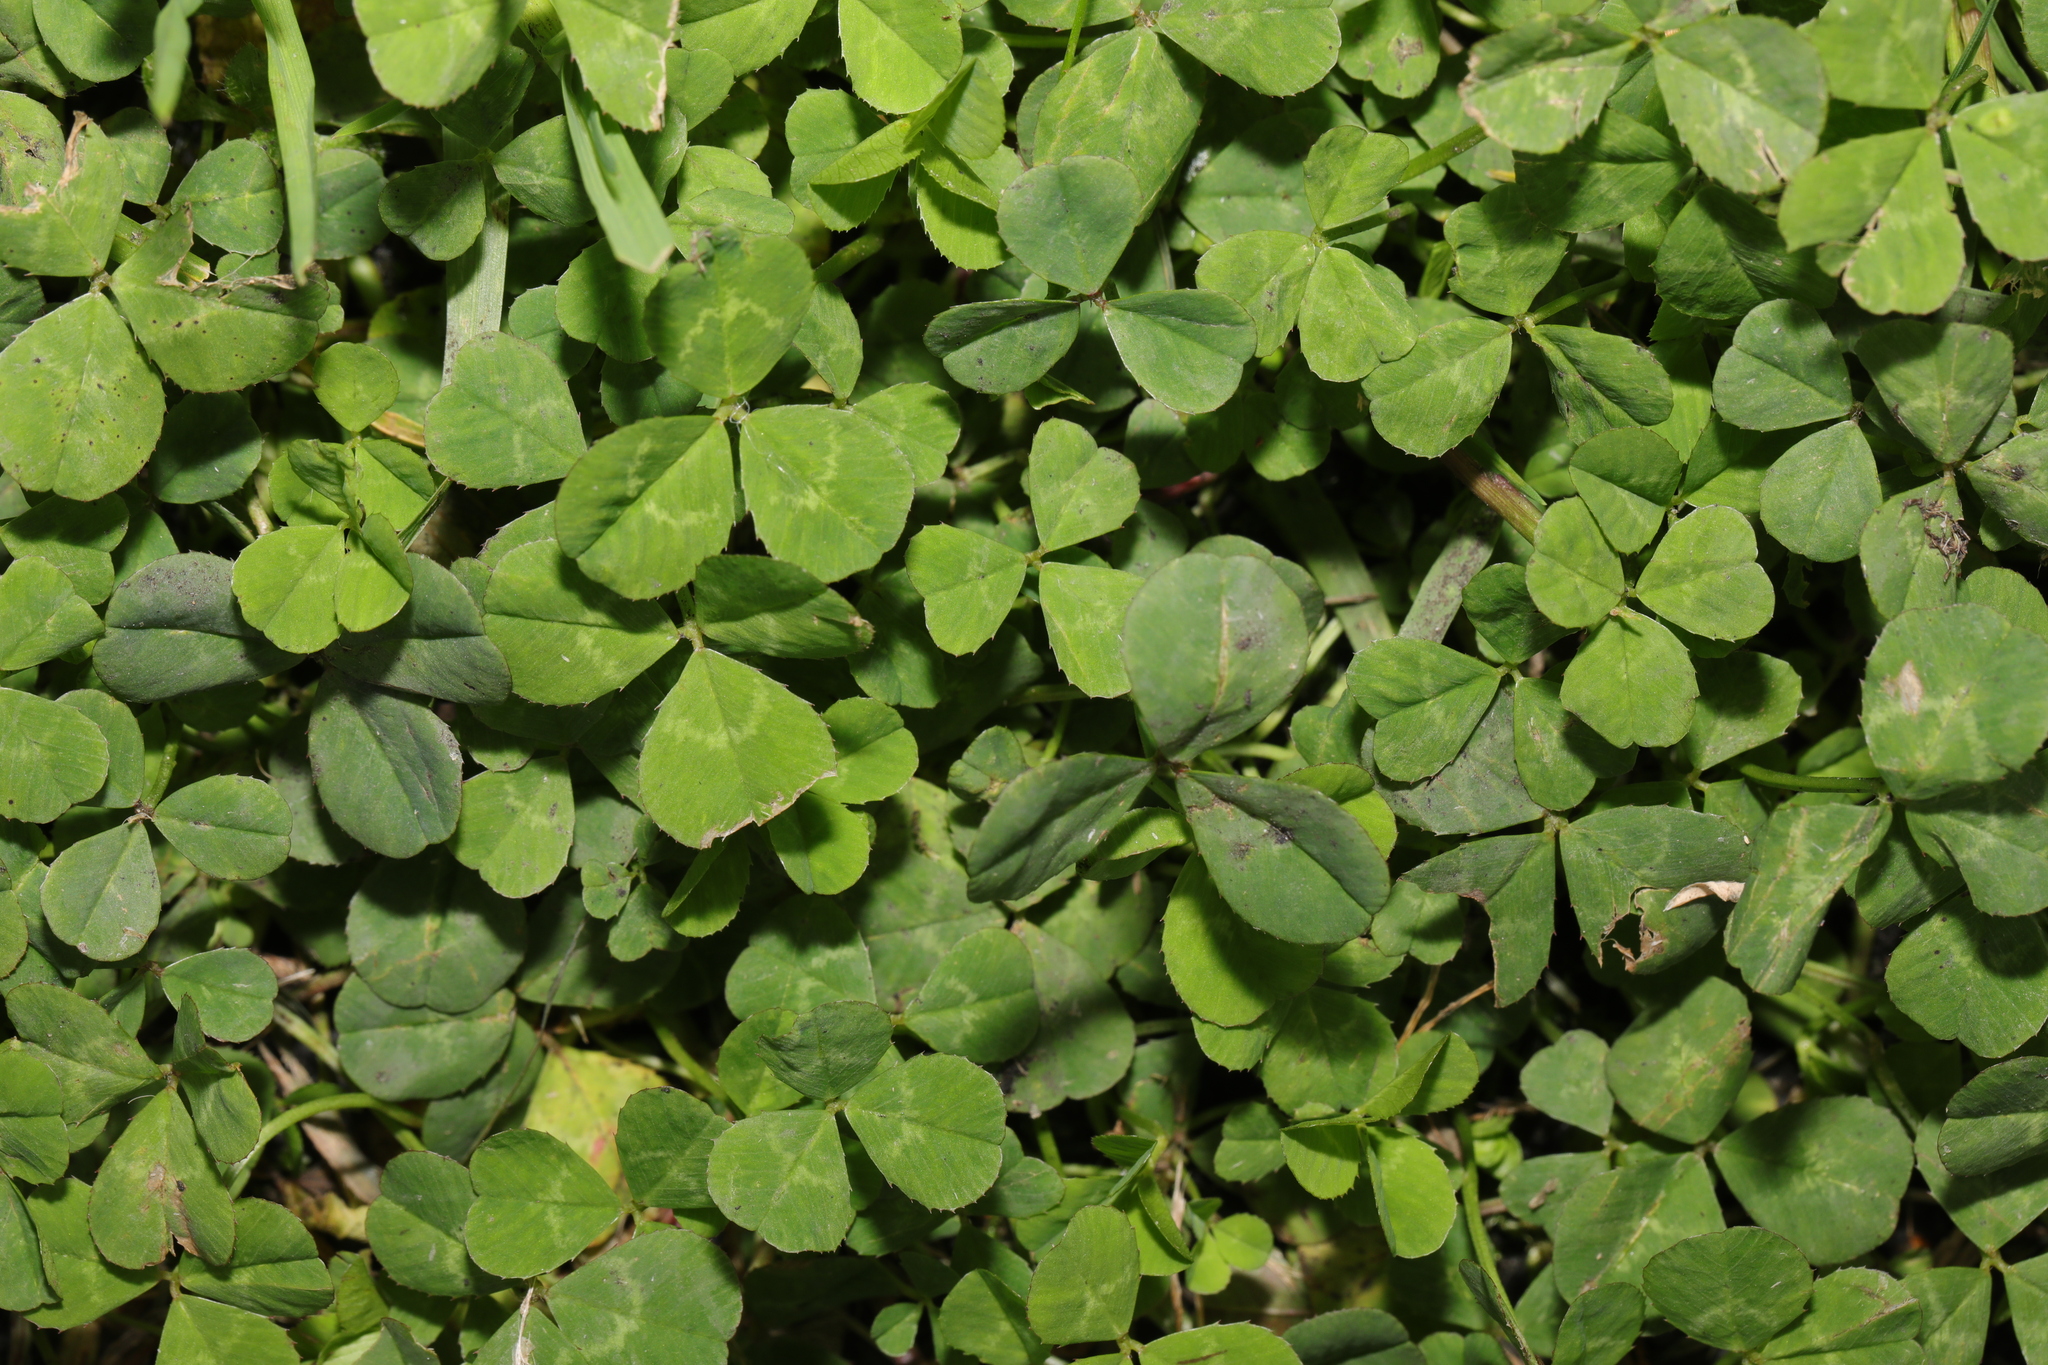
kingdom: Plantae
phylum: Tracheophyta
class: Magnoliopsida
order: Fabales
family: Fabaceae
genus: Trifolium
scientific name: Trifolium repens
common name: White clover
